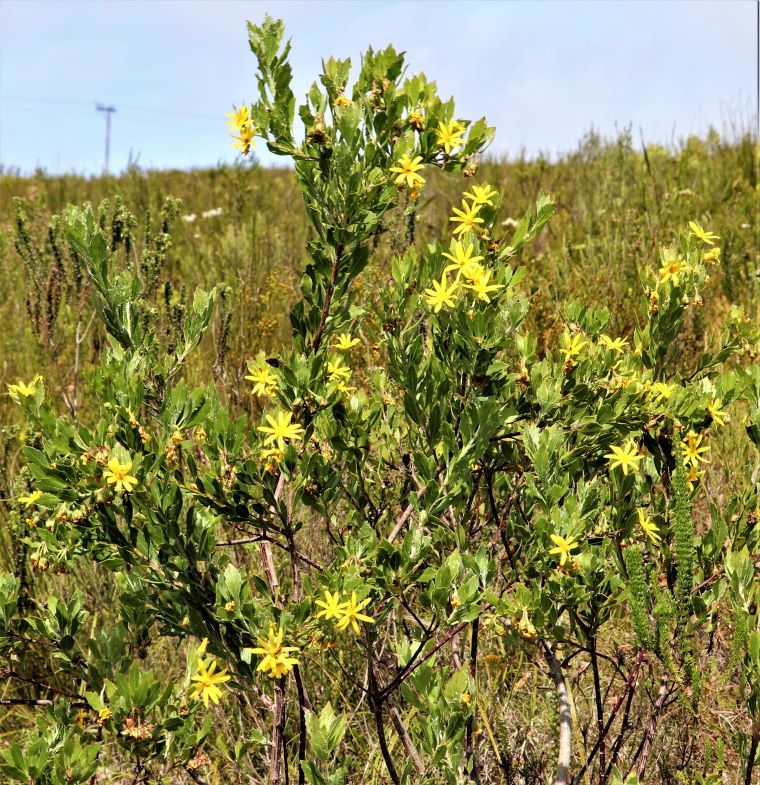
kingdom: Plantae
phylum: Tracheophyta
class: Magnoliopsida
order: Asterales
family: Asteraceae
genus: Osteospermum
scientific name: Osteospermum moniliferum
